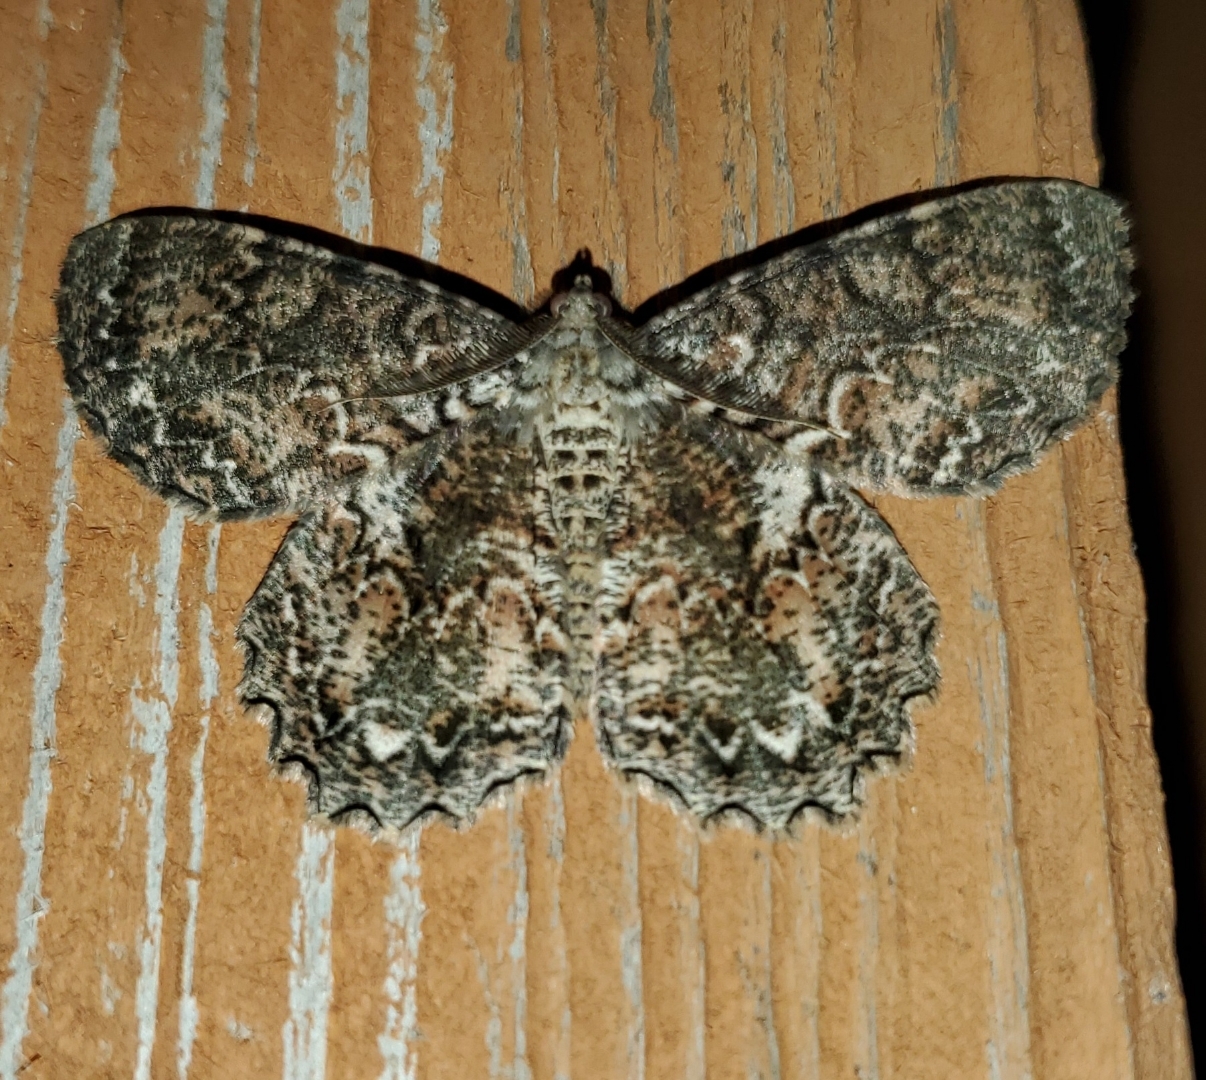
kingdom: Animalia
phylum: Arthropoda
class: Insecta
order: Lepidoptera
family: Geometridae
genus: Epimecis
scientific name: Epimecis hortaria
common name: Tulip-tree beauty
